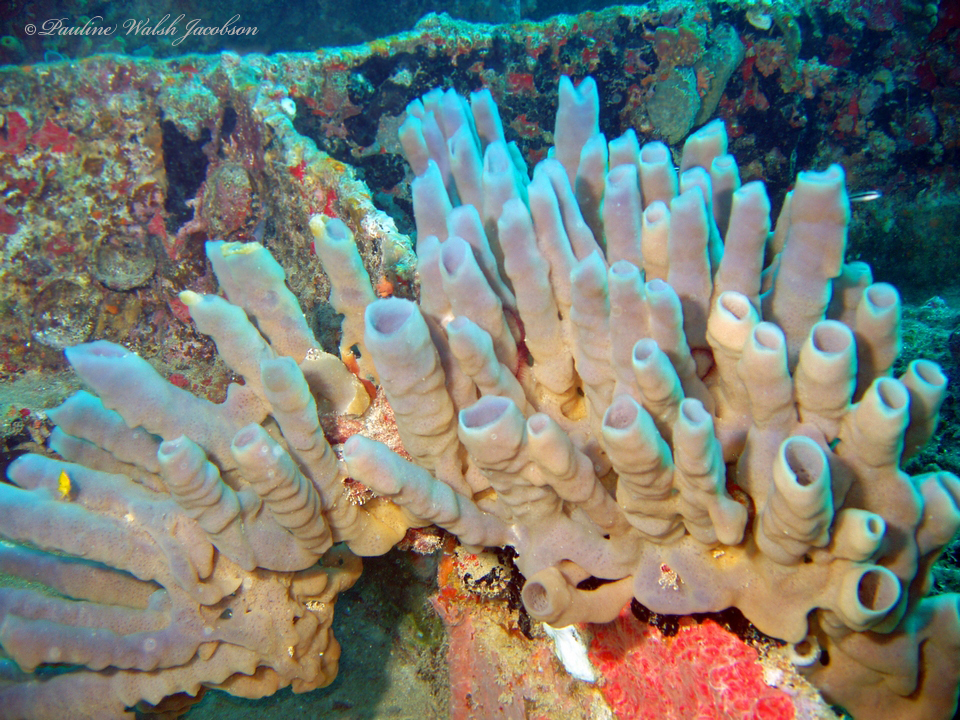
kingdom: Animalia
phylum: Porifera
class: Demospongiae
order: Haplosclerida
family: Callyspongiidae
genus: Callyspongia
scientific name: Callyspongia fallax
